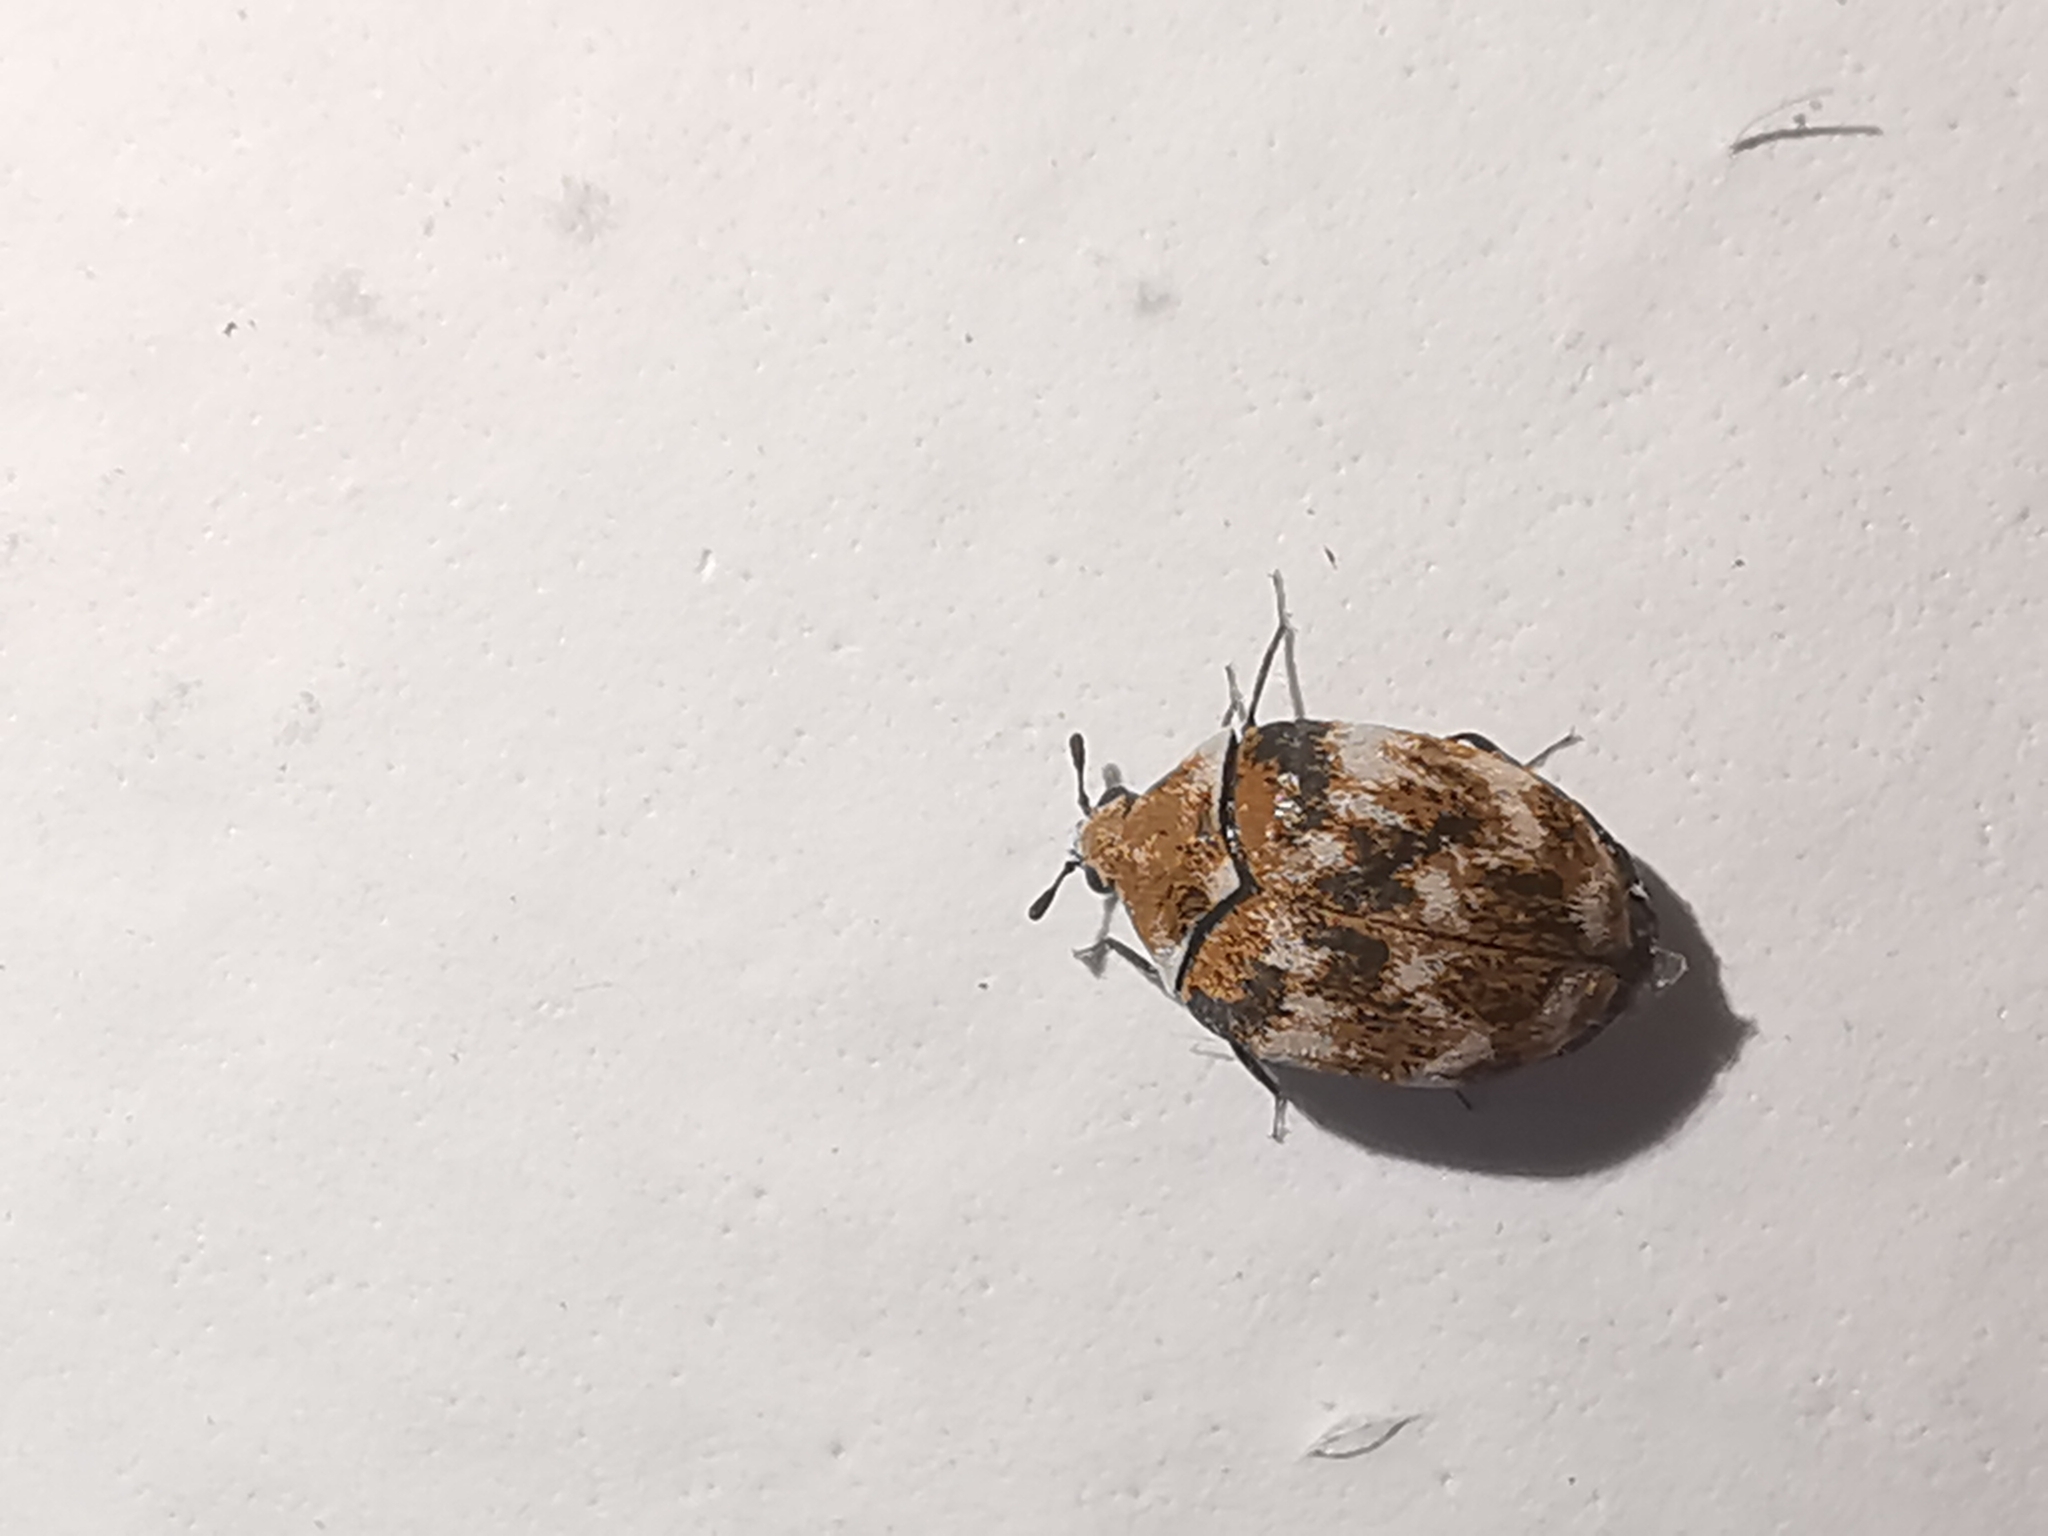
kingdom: Animalia
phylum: Arthropoda
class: Insecta
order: Coleoptera
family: Dermestidae
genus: Anthrenus
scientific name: Anthrenus verbasci
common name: Varied carpet beetle
